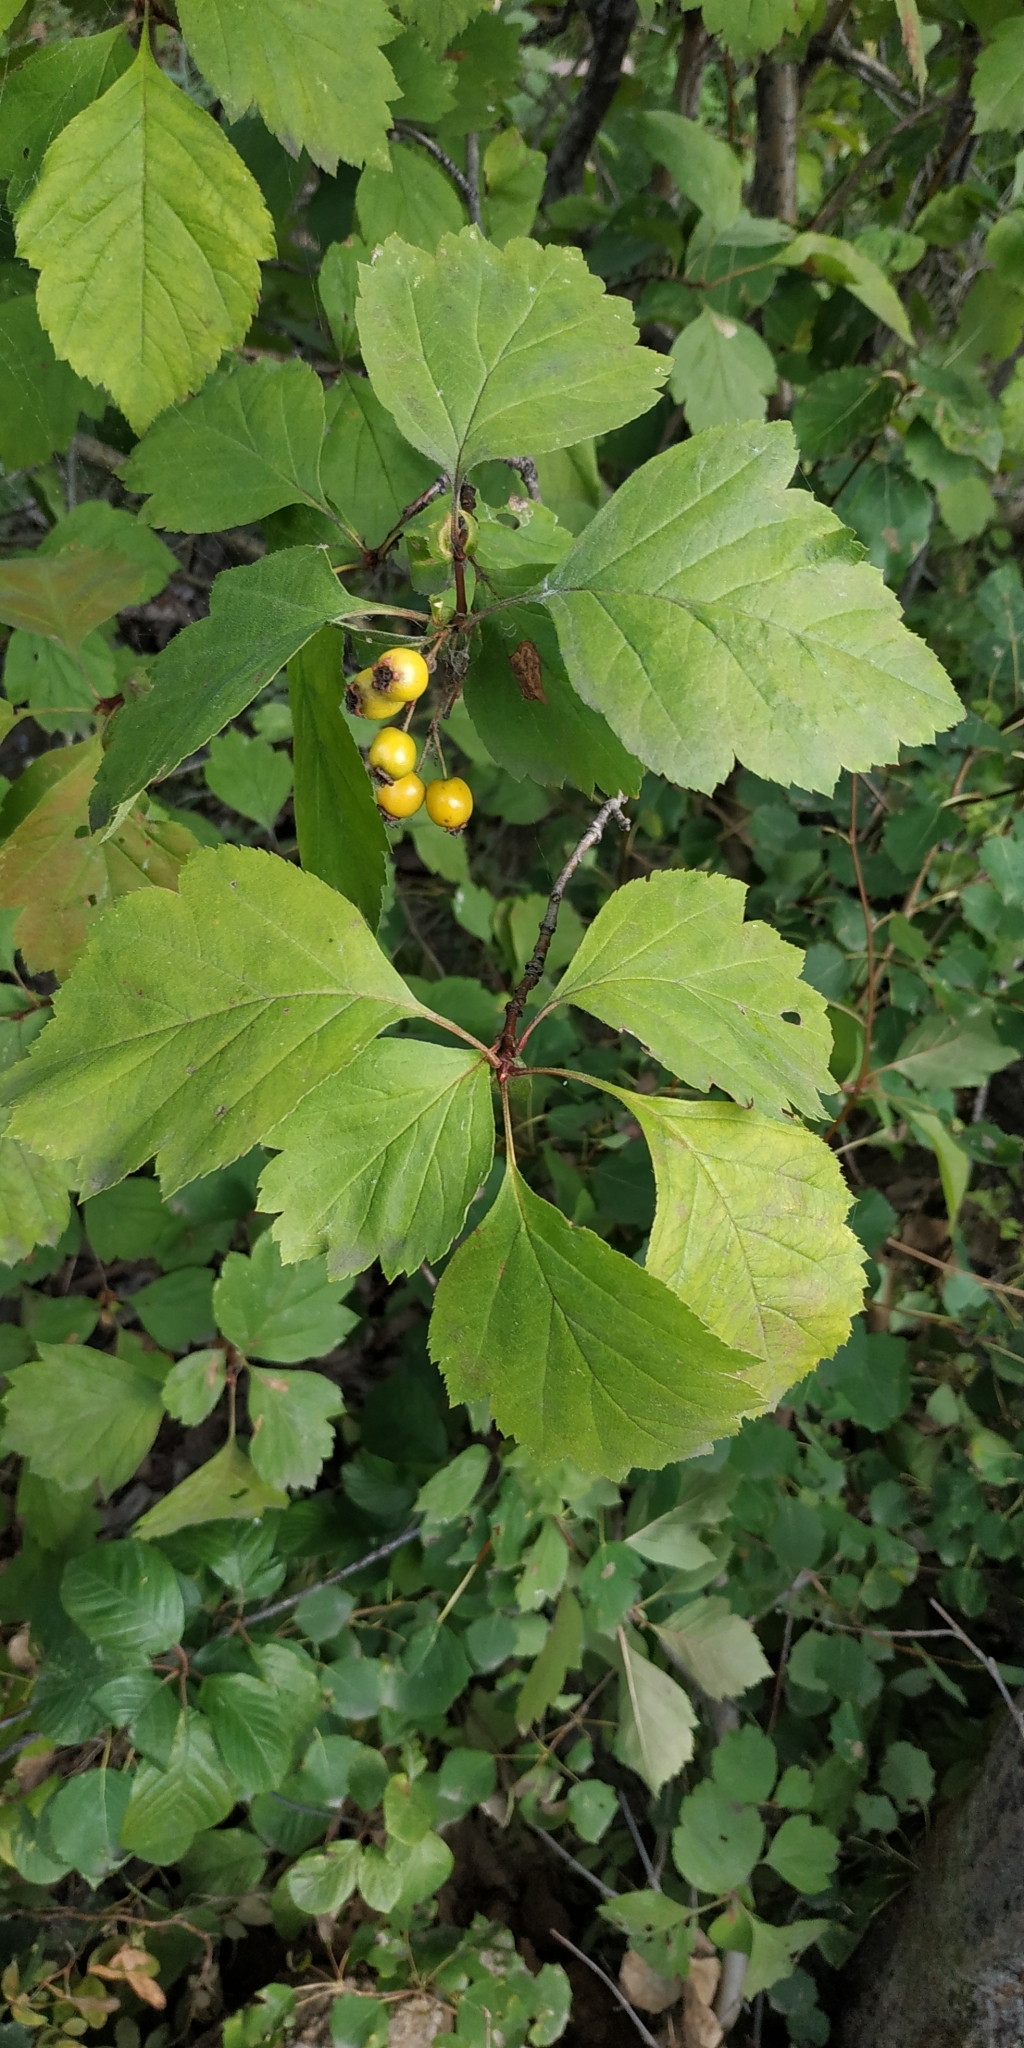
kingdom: Plantae
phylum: Tracheophyta
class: Magnoliopsida
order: Rosales
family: Rosaceae
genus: Crataegus
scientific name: Crataegus sanguinea
